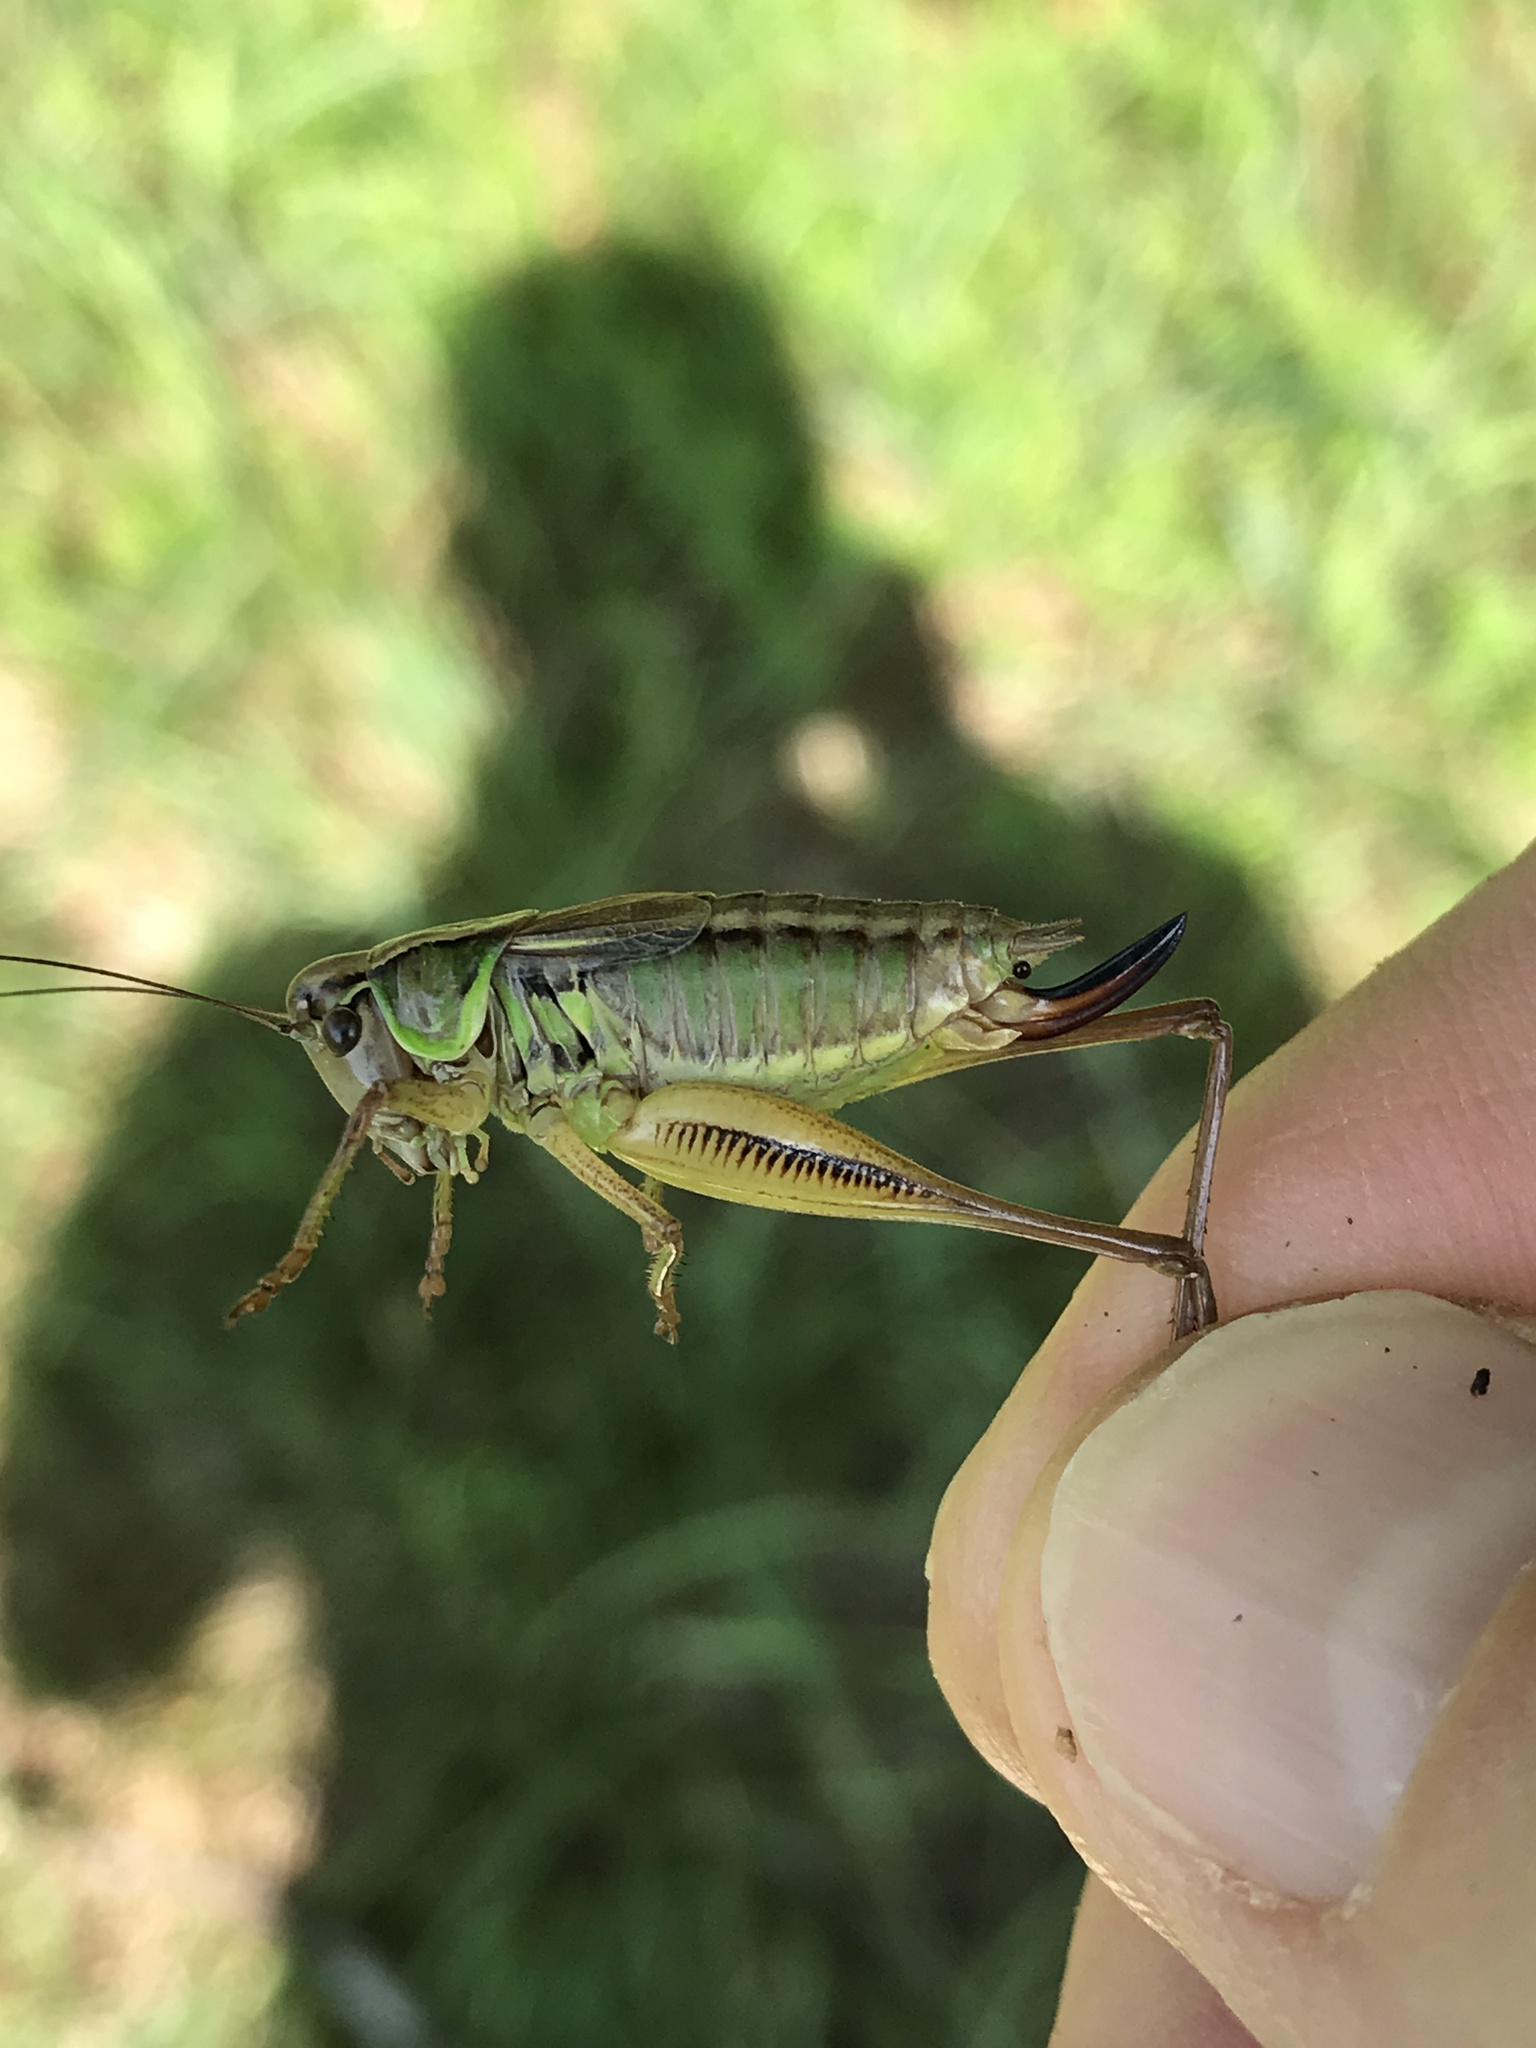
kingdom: Animalia
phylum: Arthropoda
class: Insecta
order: Orthoptera
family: Tettigoniidae
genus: Roeseliana
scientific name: Roeseliana roeselii
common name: Roesel's bush cricket
